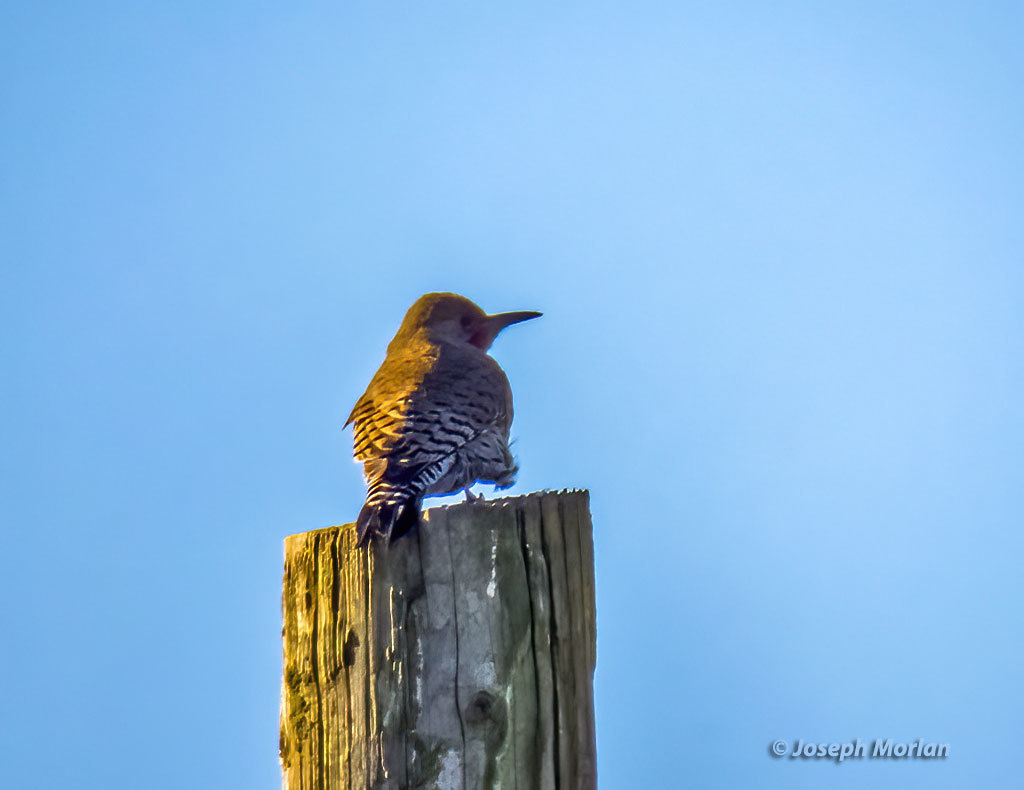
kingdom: Animalia
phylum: Chordata
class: Aves
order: Piciformes
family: Picidae
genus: Colaptes
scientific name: Colaptes auratus
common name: Northern flicker
